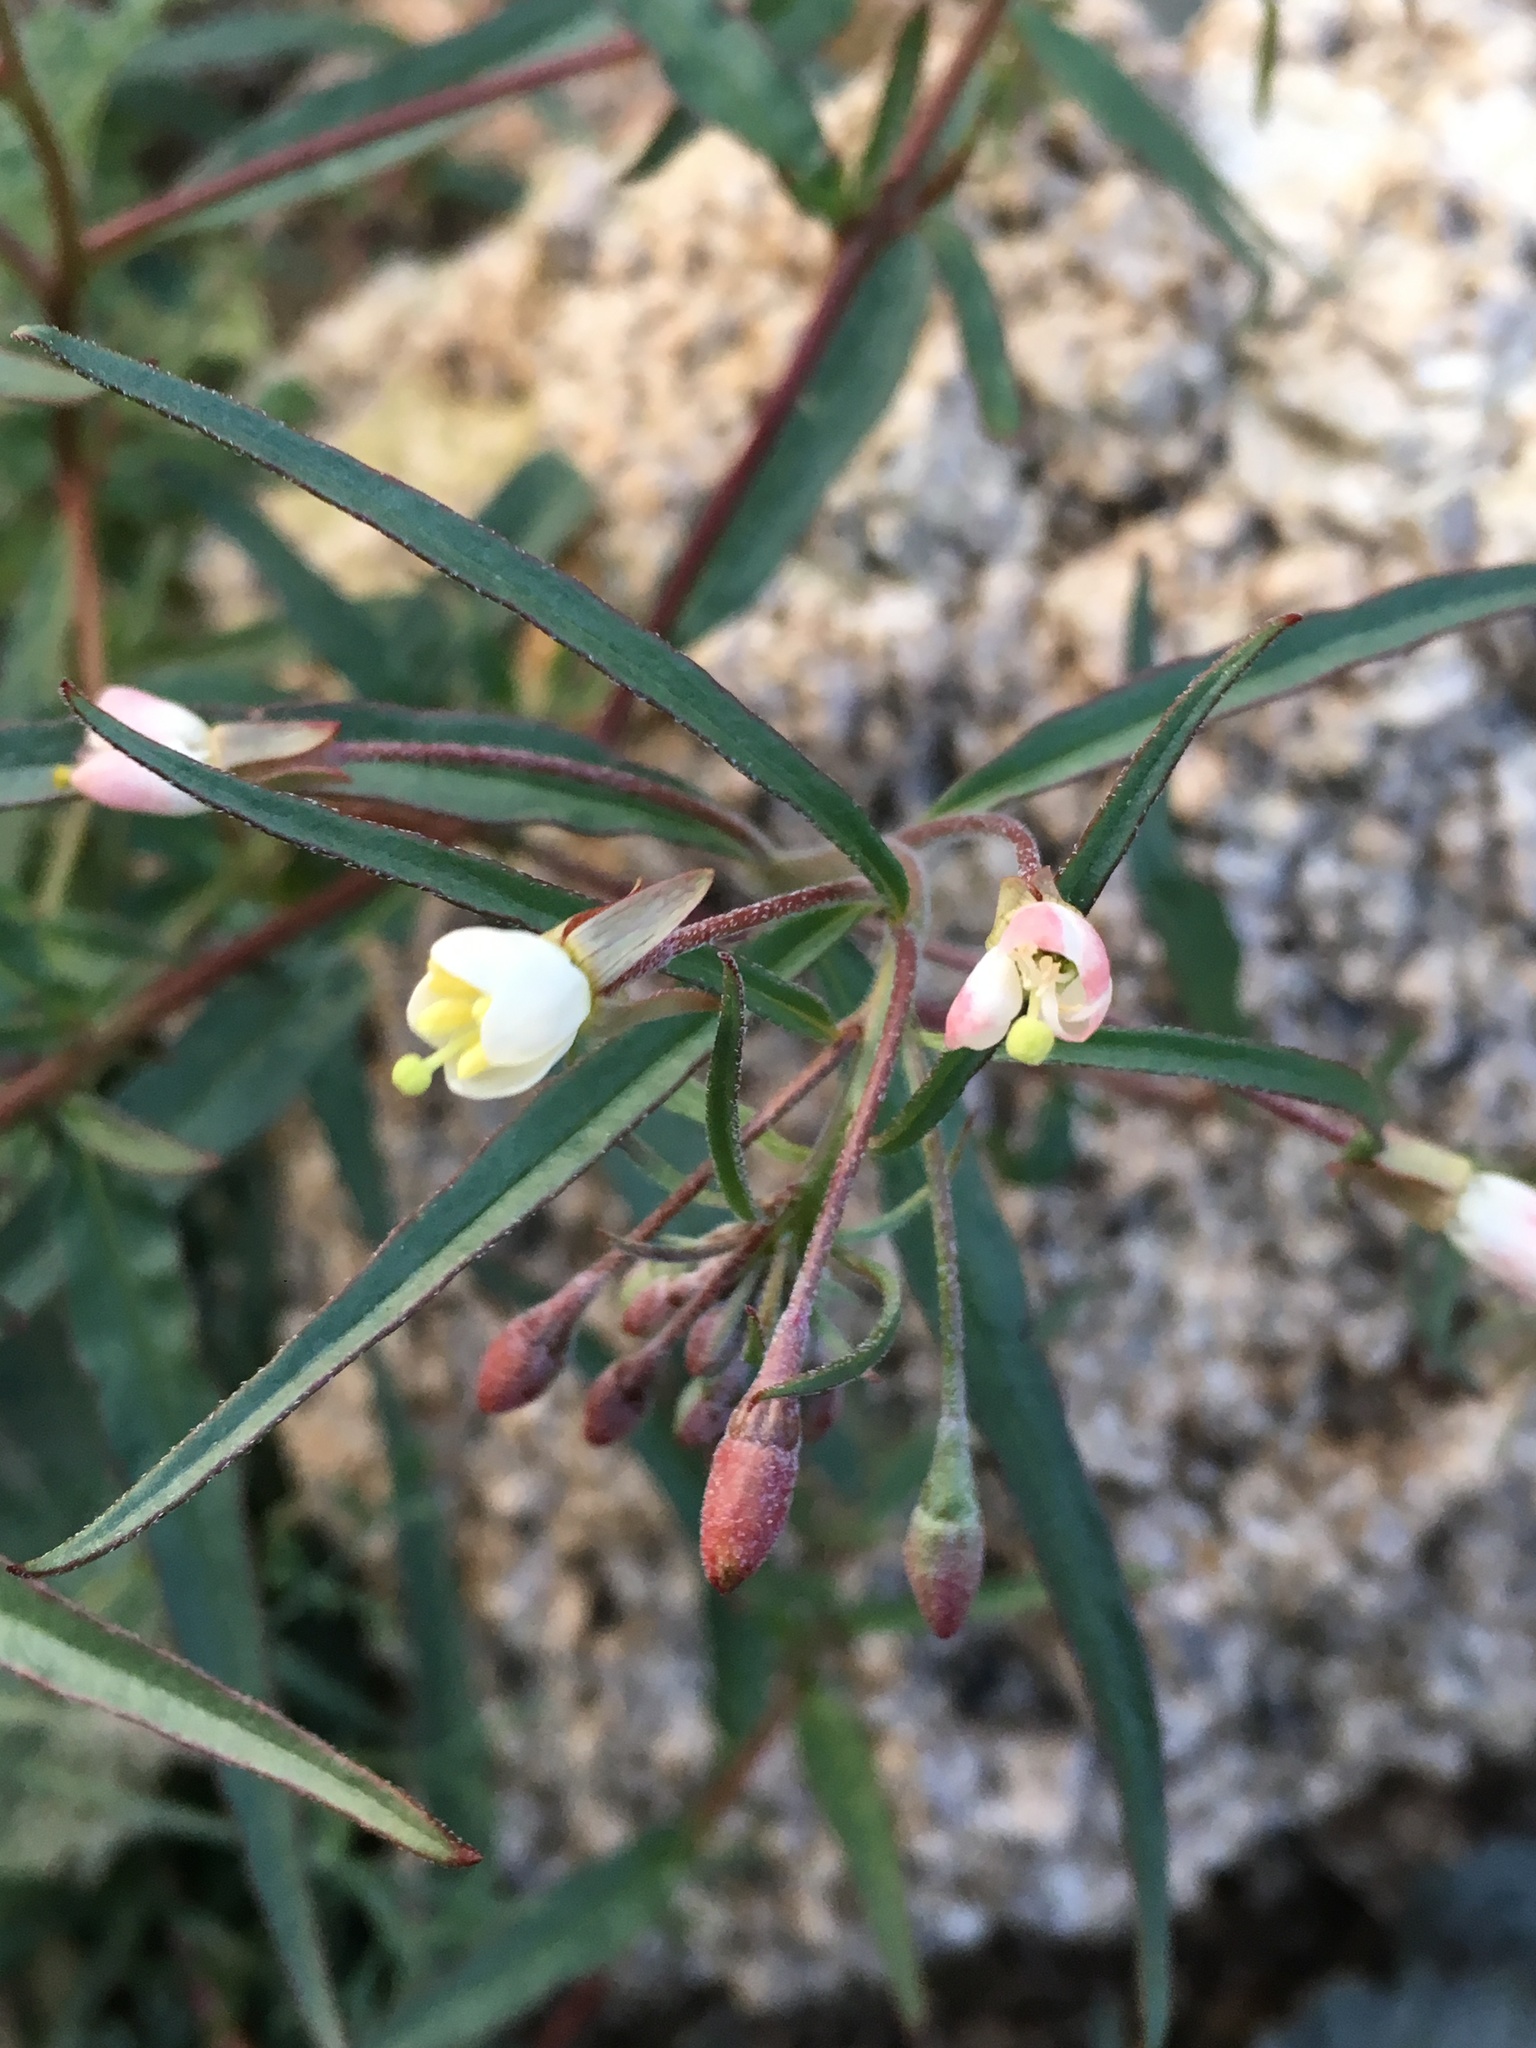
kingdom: Plantae
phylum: Tracheophyta
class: Magnoliopsida
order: Myrtales
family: Onagraceae
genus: Eremothera
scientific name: Eremothera refracta
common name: Narrowleaf suncup
